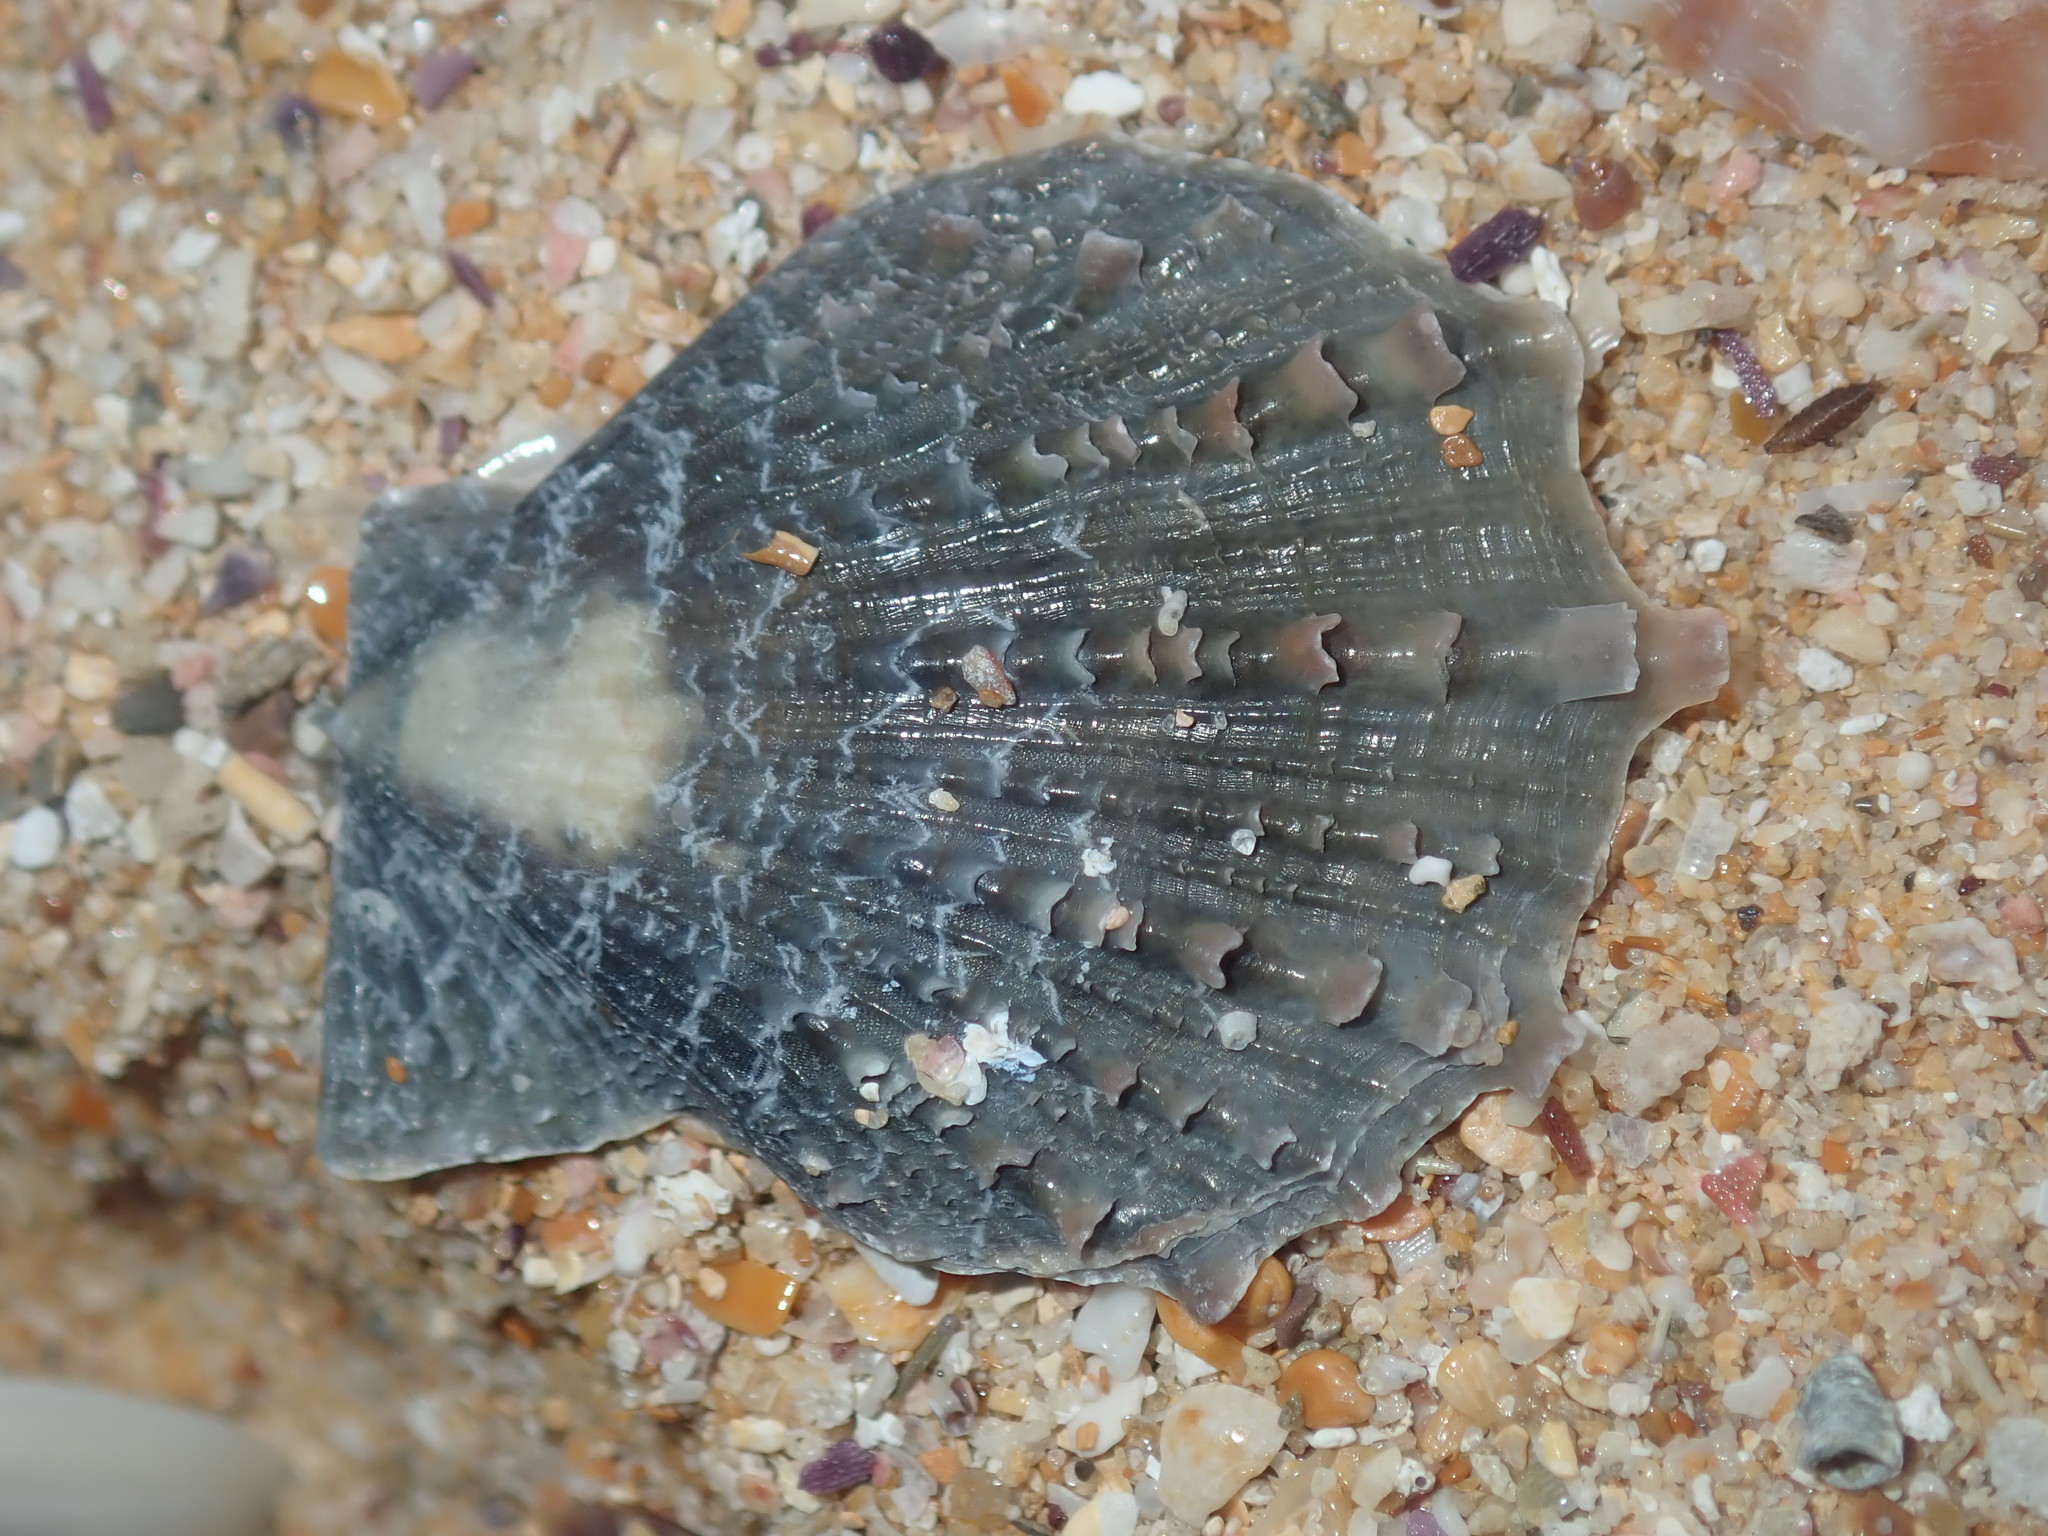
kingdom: Animalia
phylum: Mollusca
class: Bivalvia
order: Pectinida
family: Pectinidae
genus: Scaeochlamys
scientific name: Scaeochlamys livida
